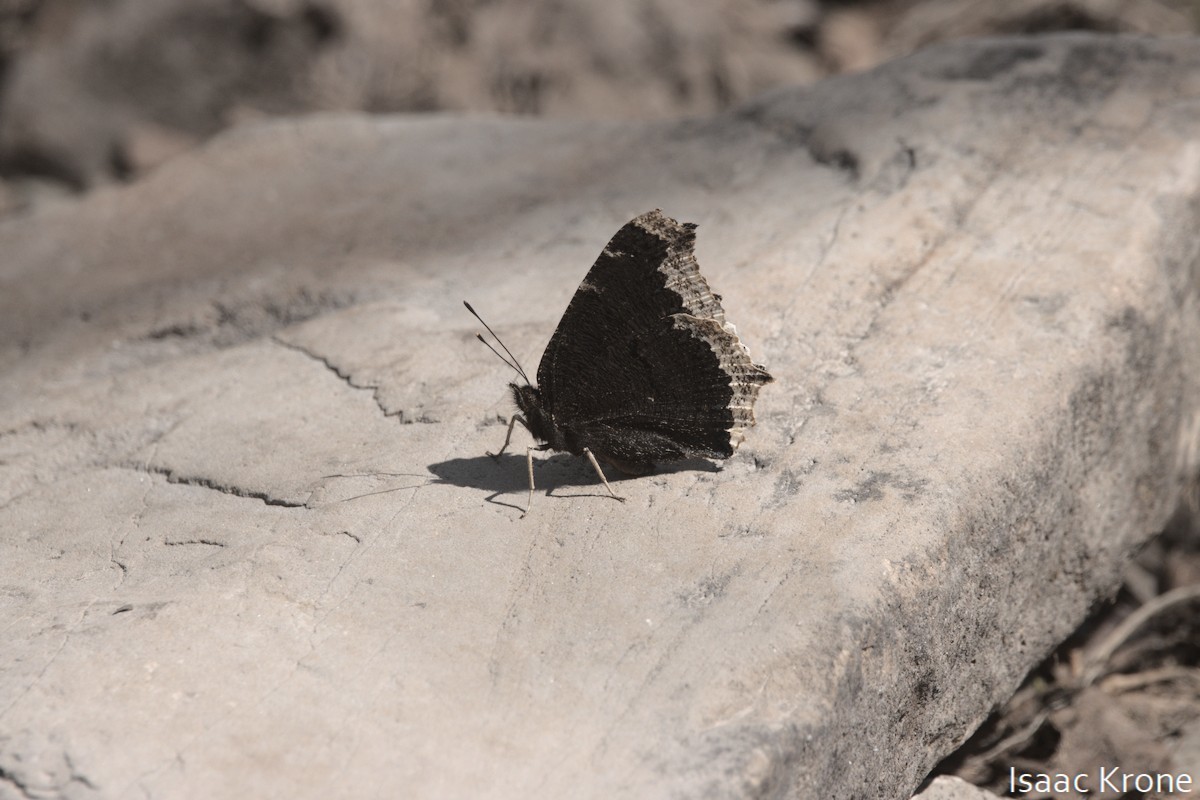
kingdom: Animalia
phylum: Arthropoda
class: Insecta
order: Lepidoptera
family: Nymphalidae
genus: Nymphalis
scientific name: Nymphalis antiopa
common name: Camberwell beauty
